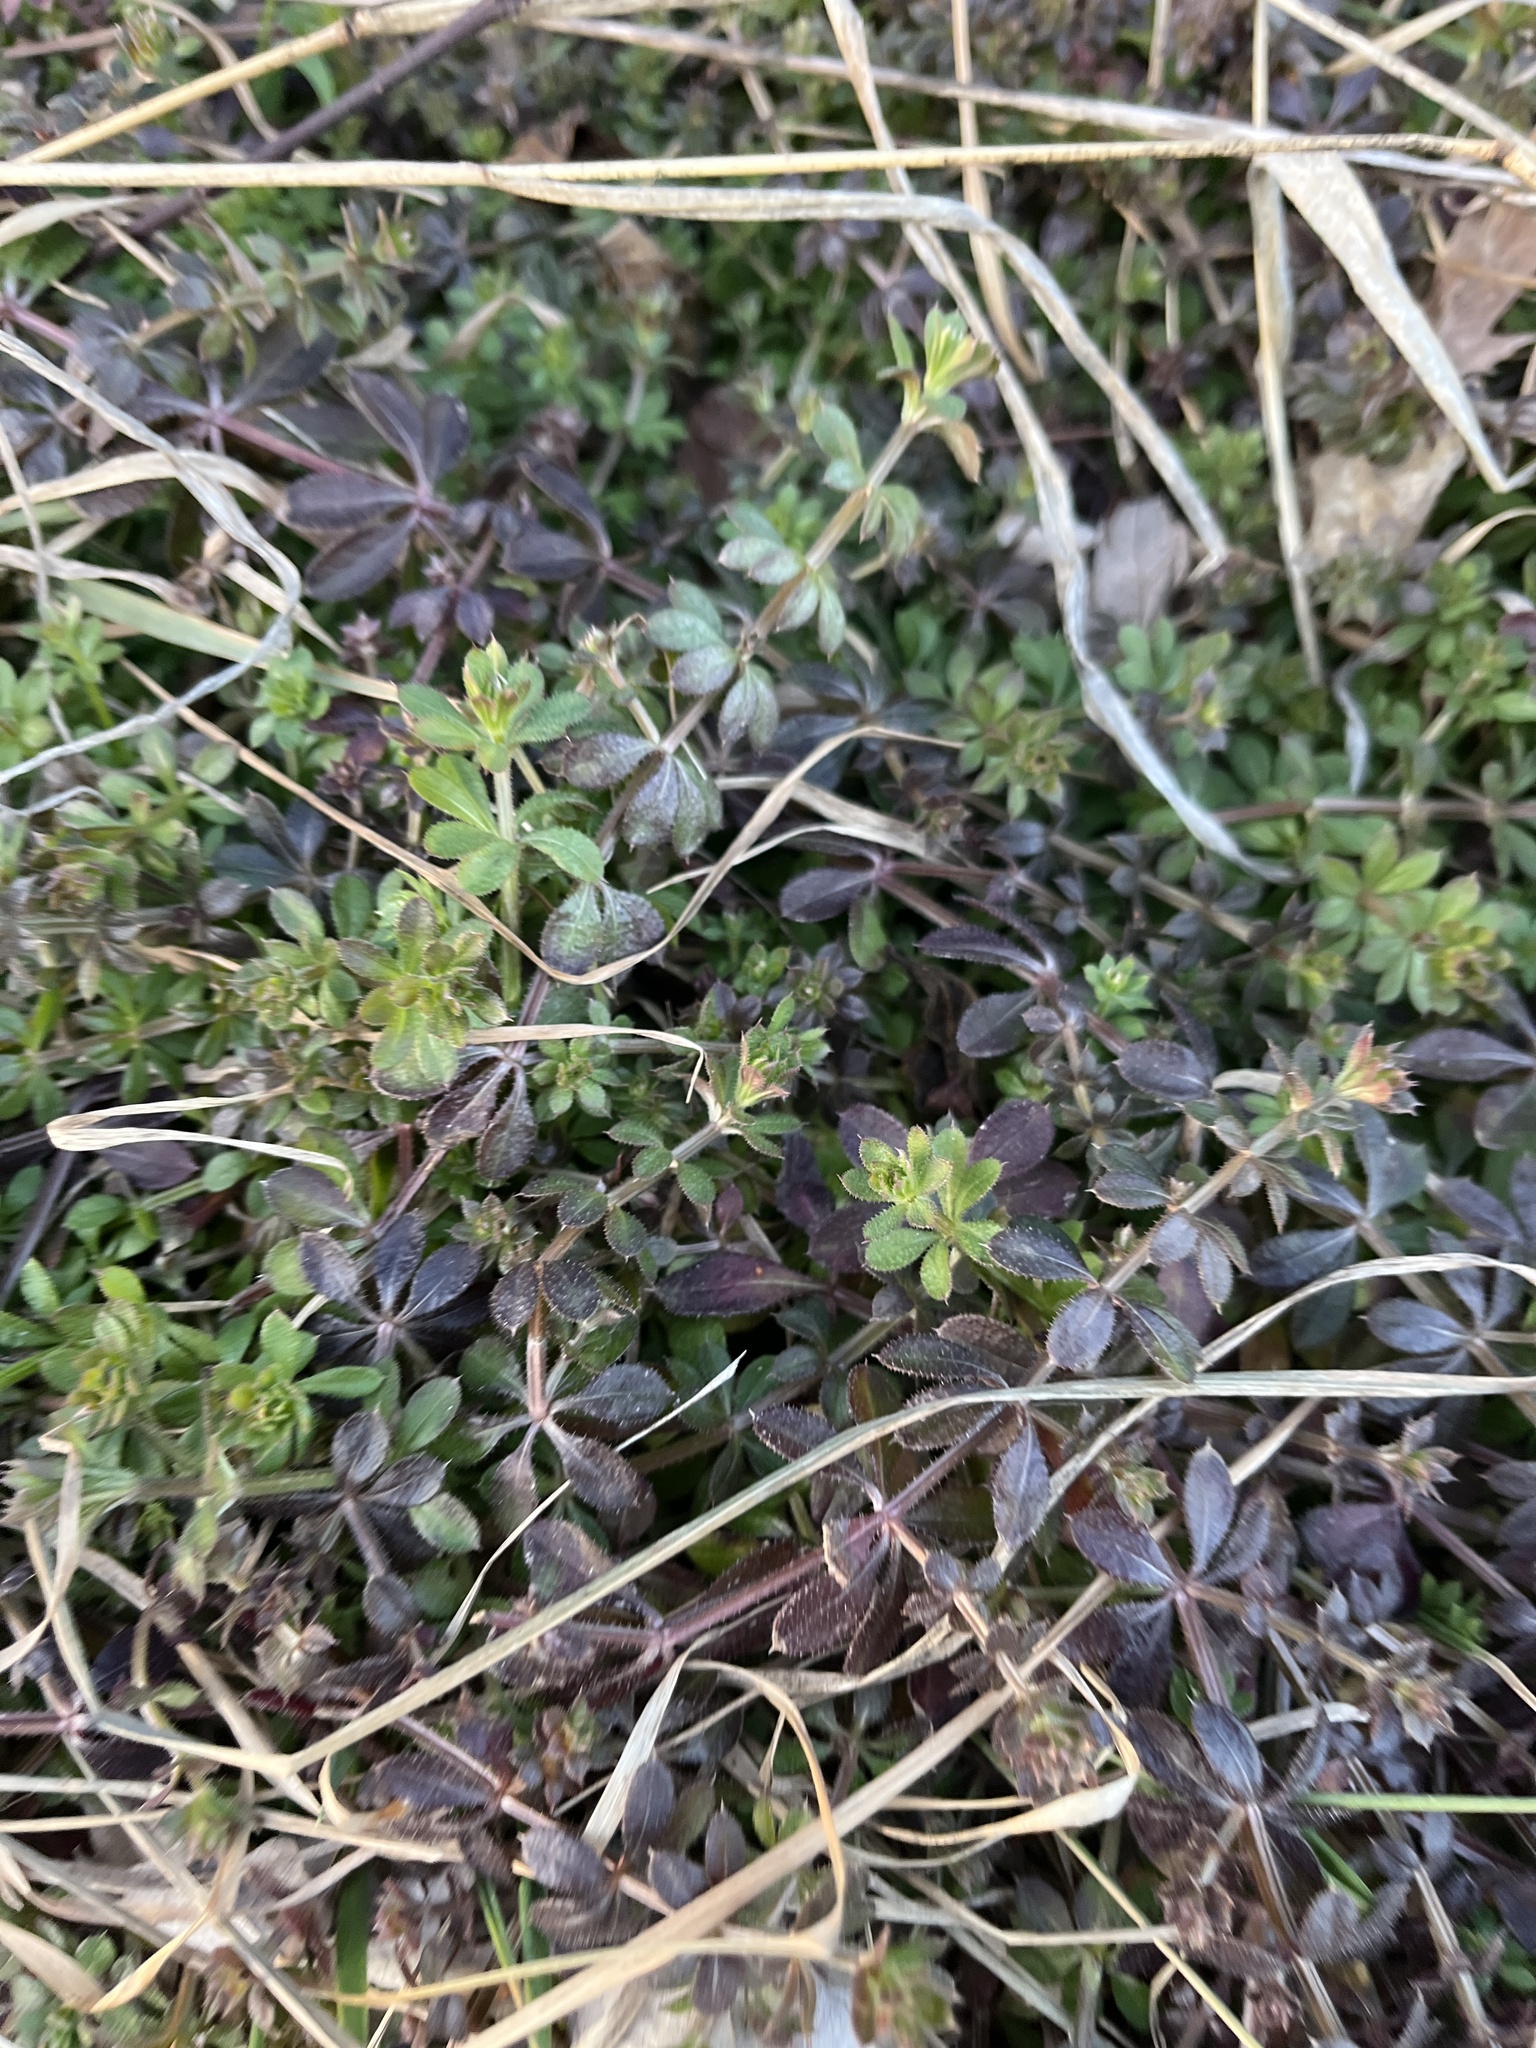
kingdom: Plantae
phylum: Tracheophyta
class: Magnoliopsida
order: Gentianales
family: Rubiaceae
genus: Galium
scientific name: Galium aparine
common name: Cleavers
